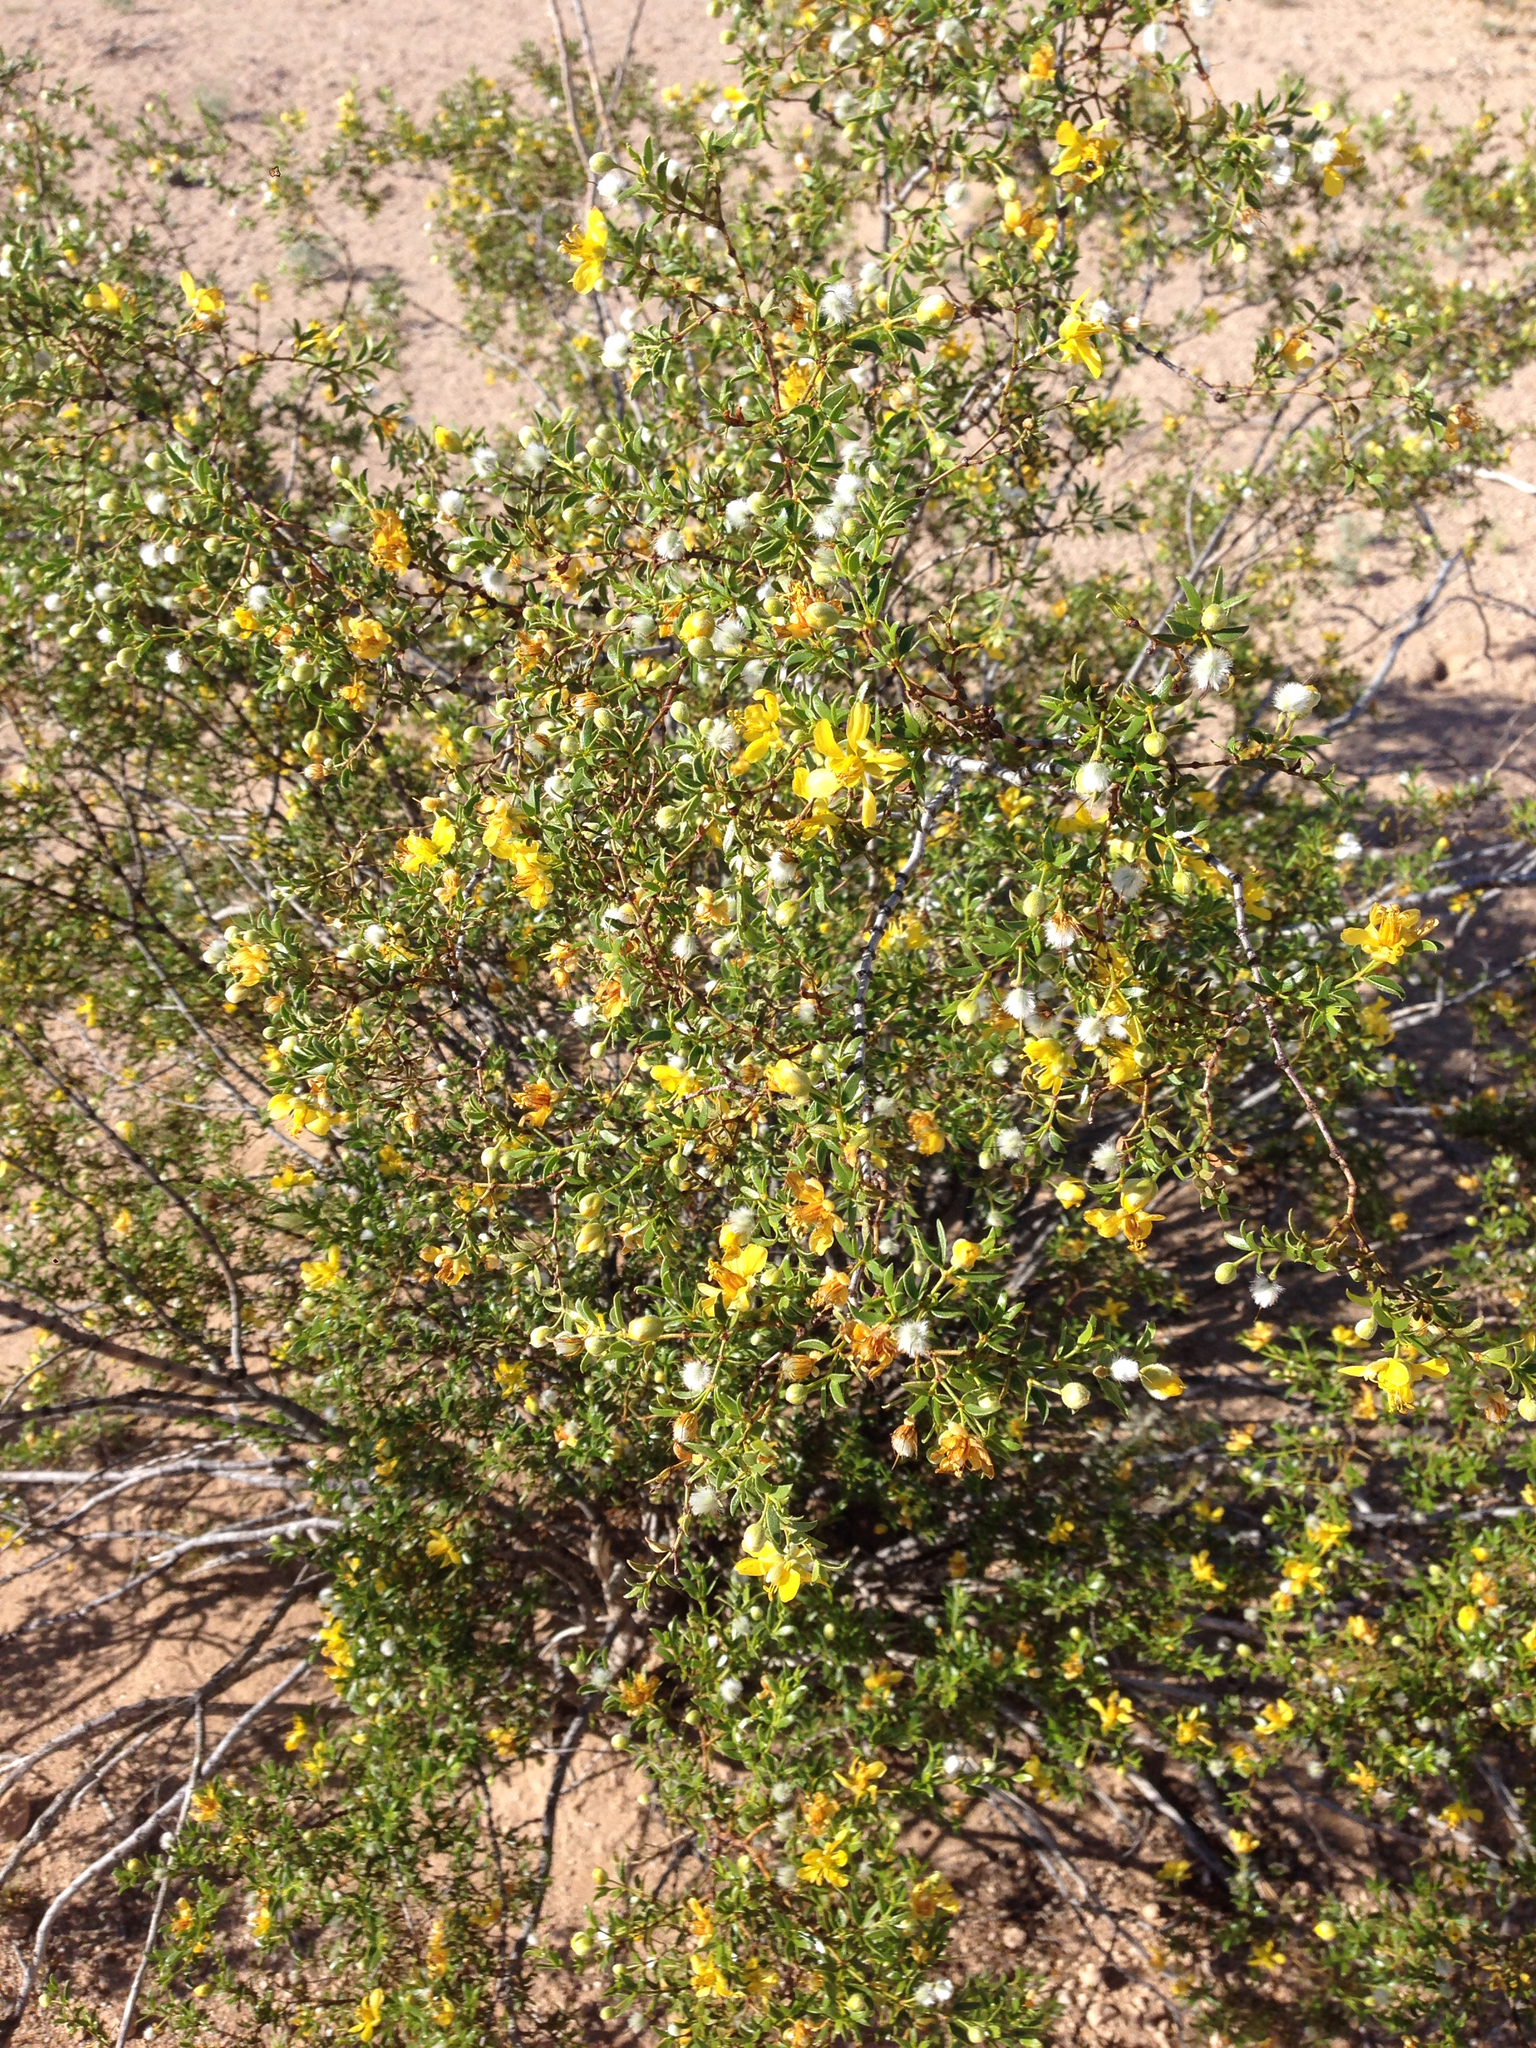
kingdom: Plantae
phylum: Tracheophyta
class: Magnoliopsida
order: Zygophyllales
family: Zygophyllaceae
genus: Larrea
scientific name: Larrea tridentata
